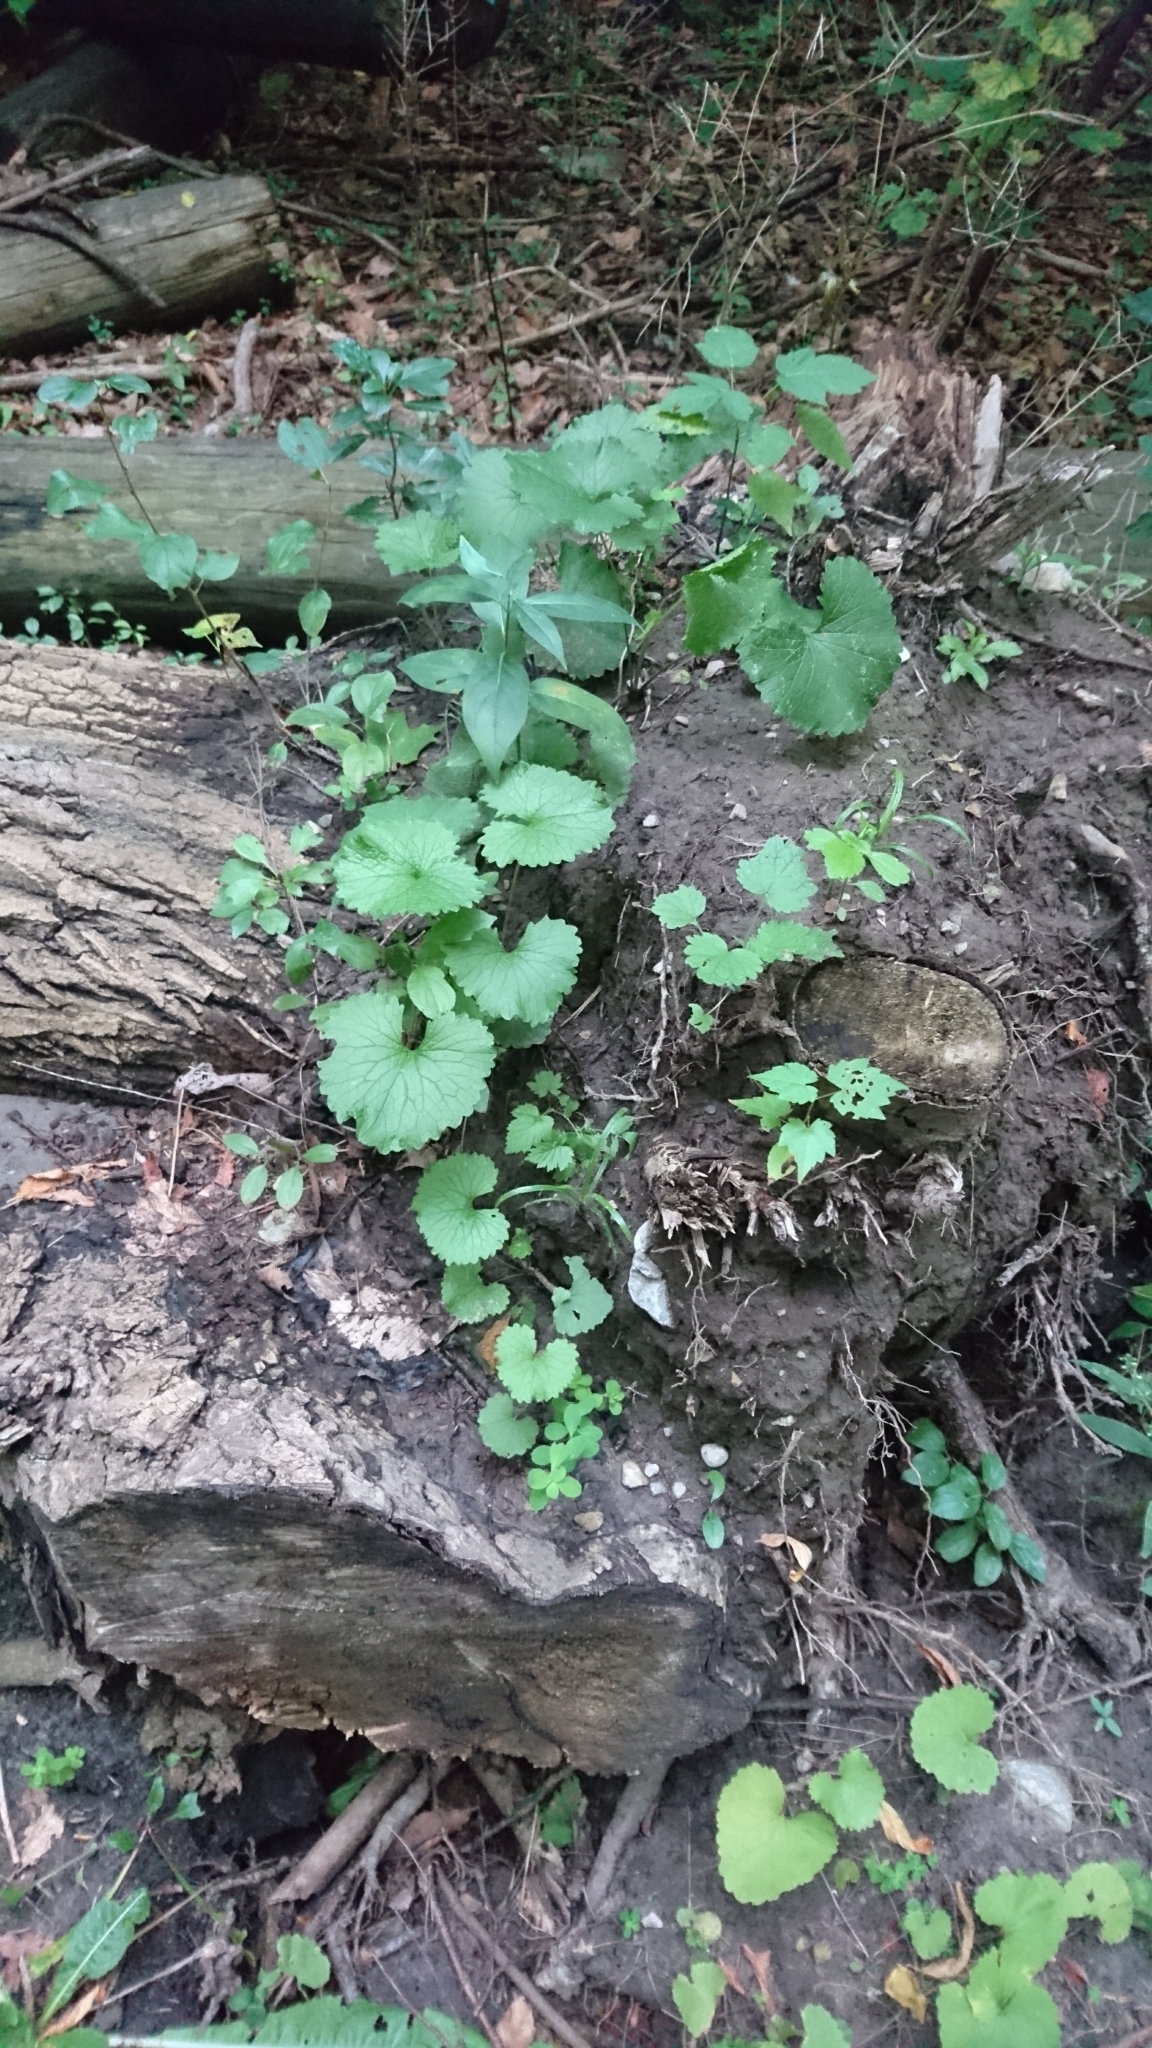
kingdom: Plantae
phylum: Tracheophyta
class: Magnoliopsida
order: Brassicales
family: Brassicaceae
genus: Alliaria
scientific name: Alliaria petiolata
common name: Garlic mustard
